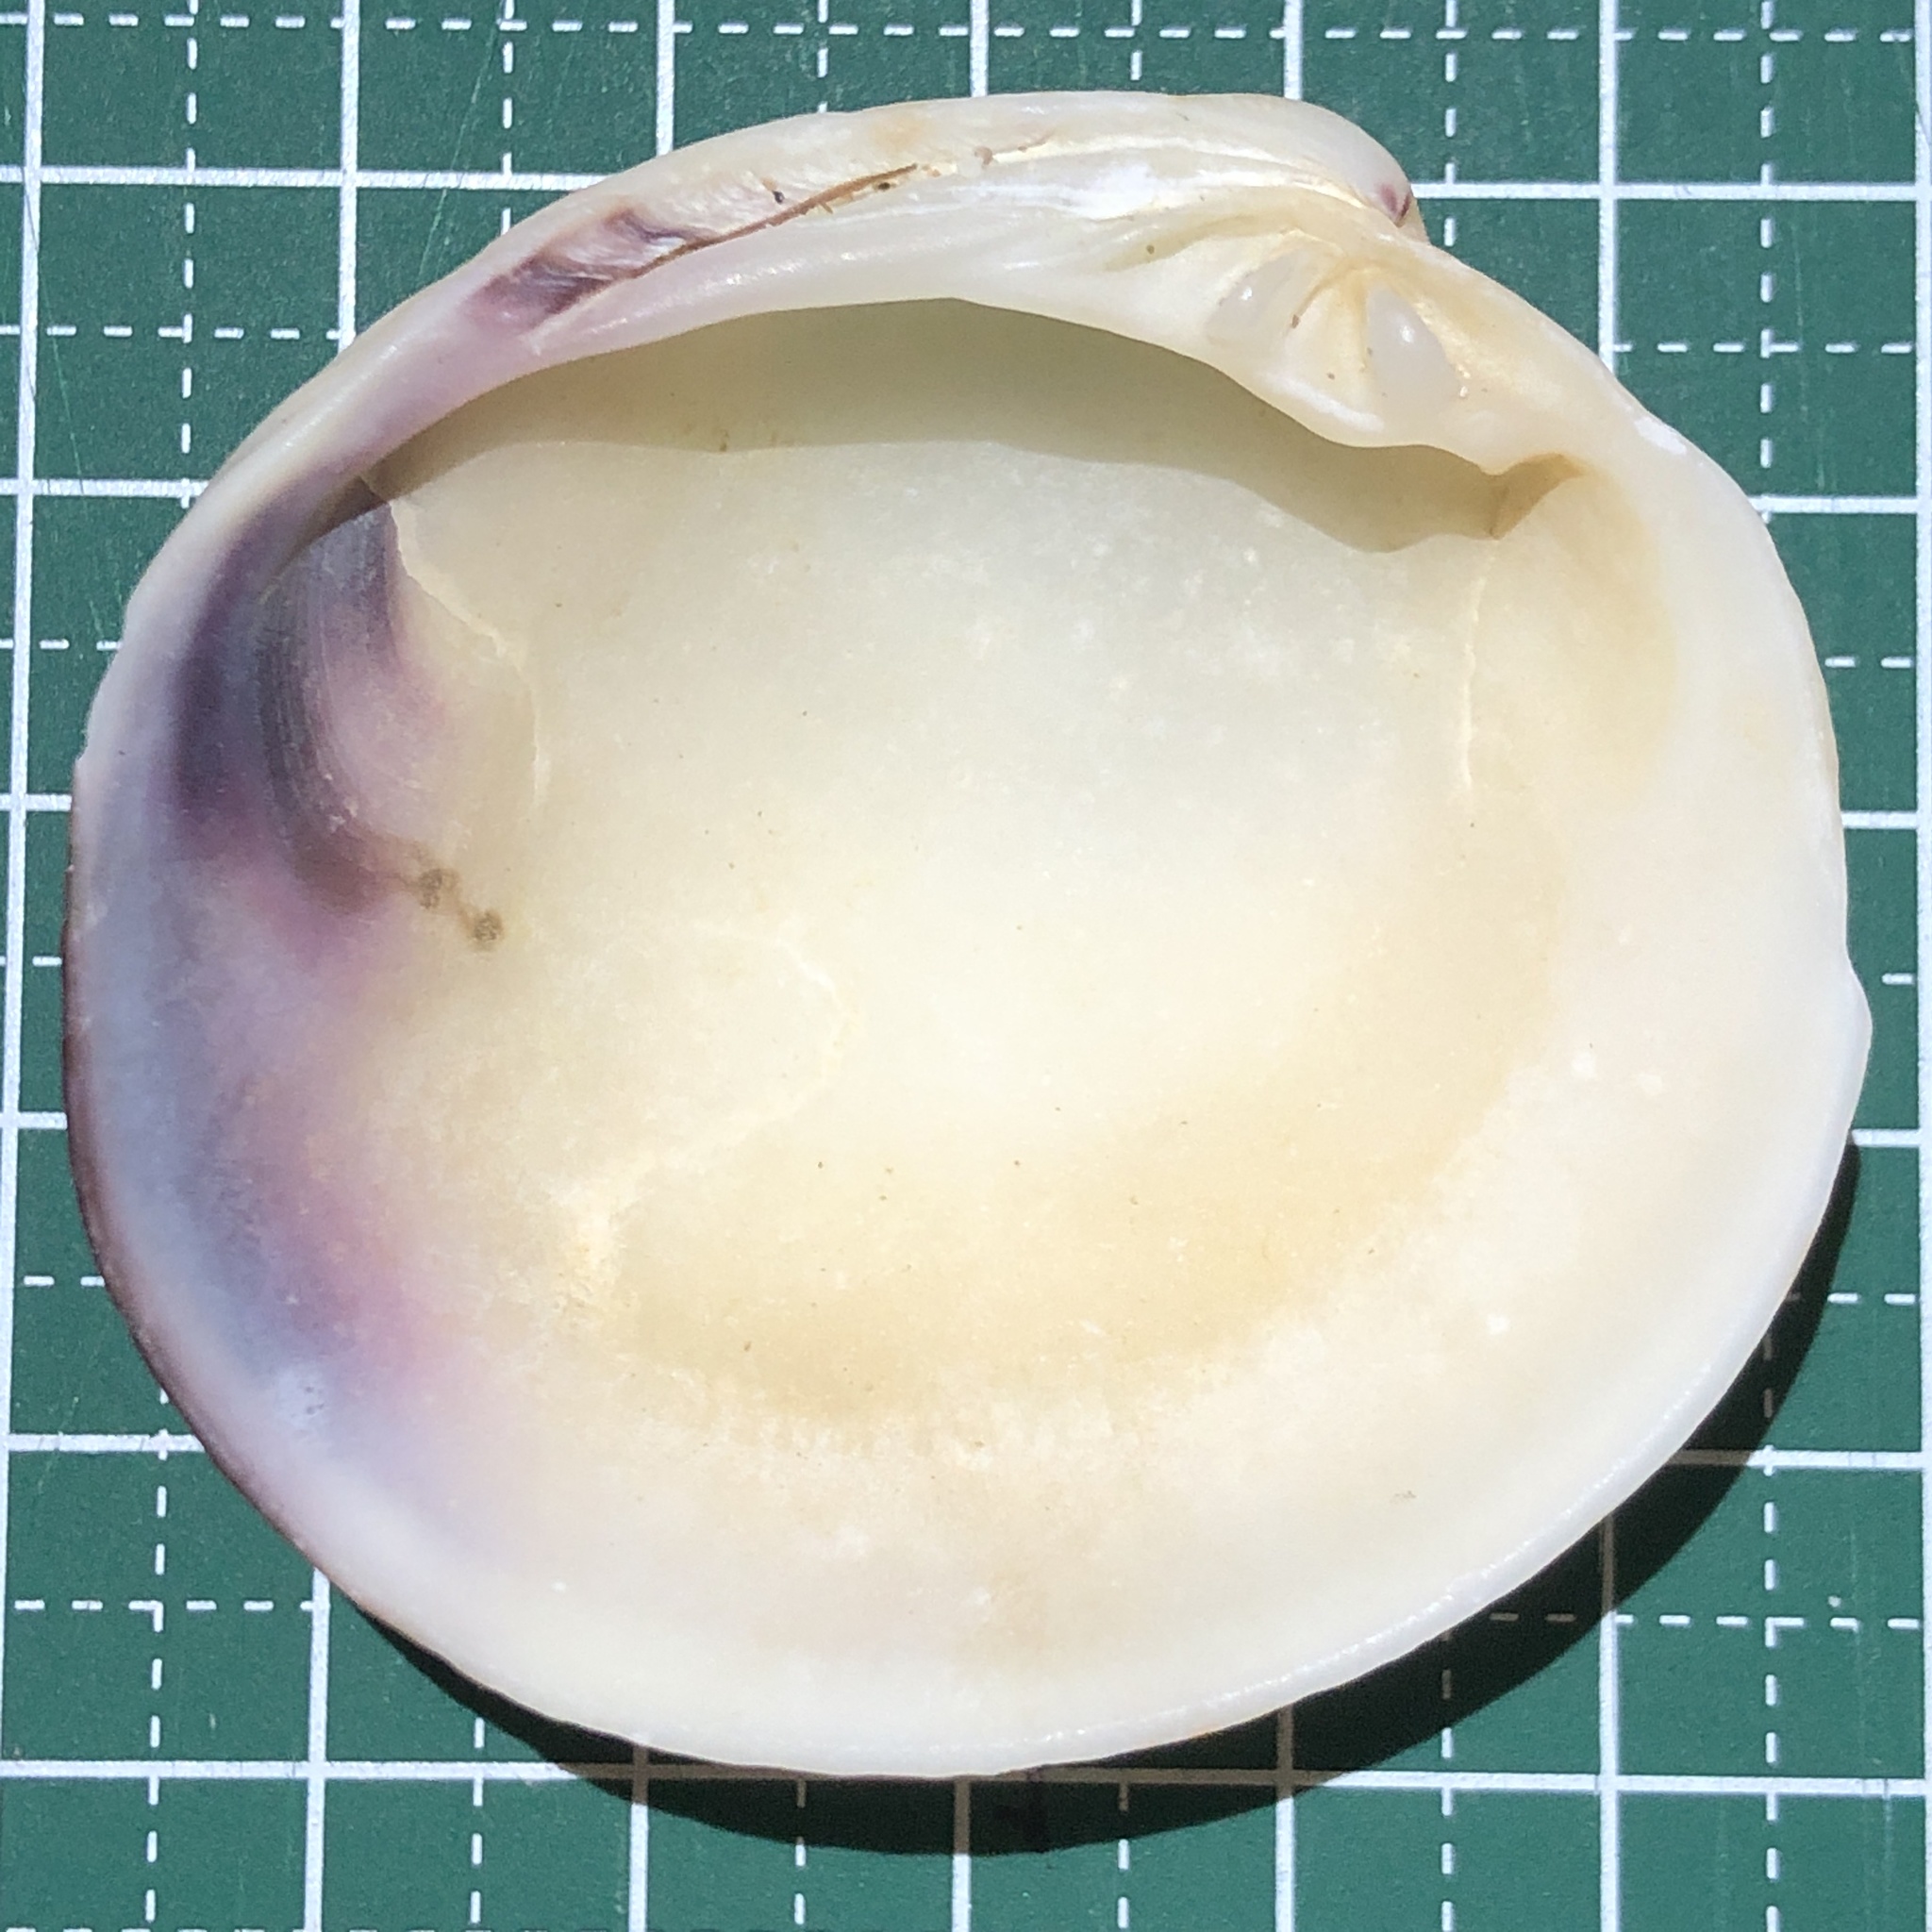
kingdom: Animalia
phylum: Mollusca
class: Bivalvia
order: Venerida
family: Veneridae
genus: Periglypta
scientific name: Periglypta puerpera
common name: Youthful venus
